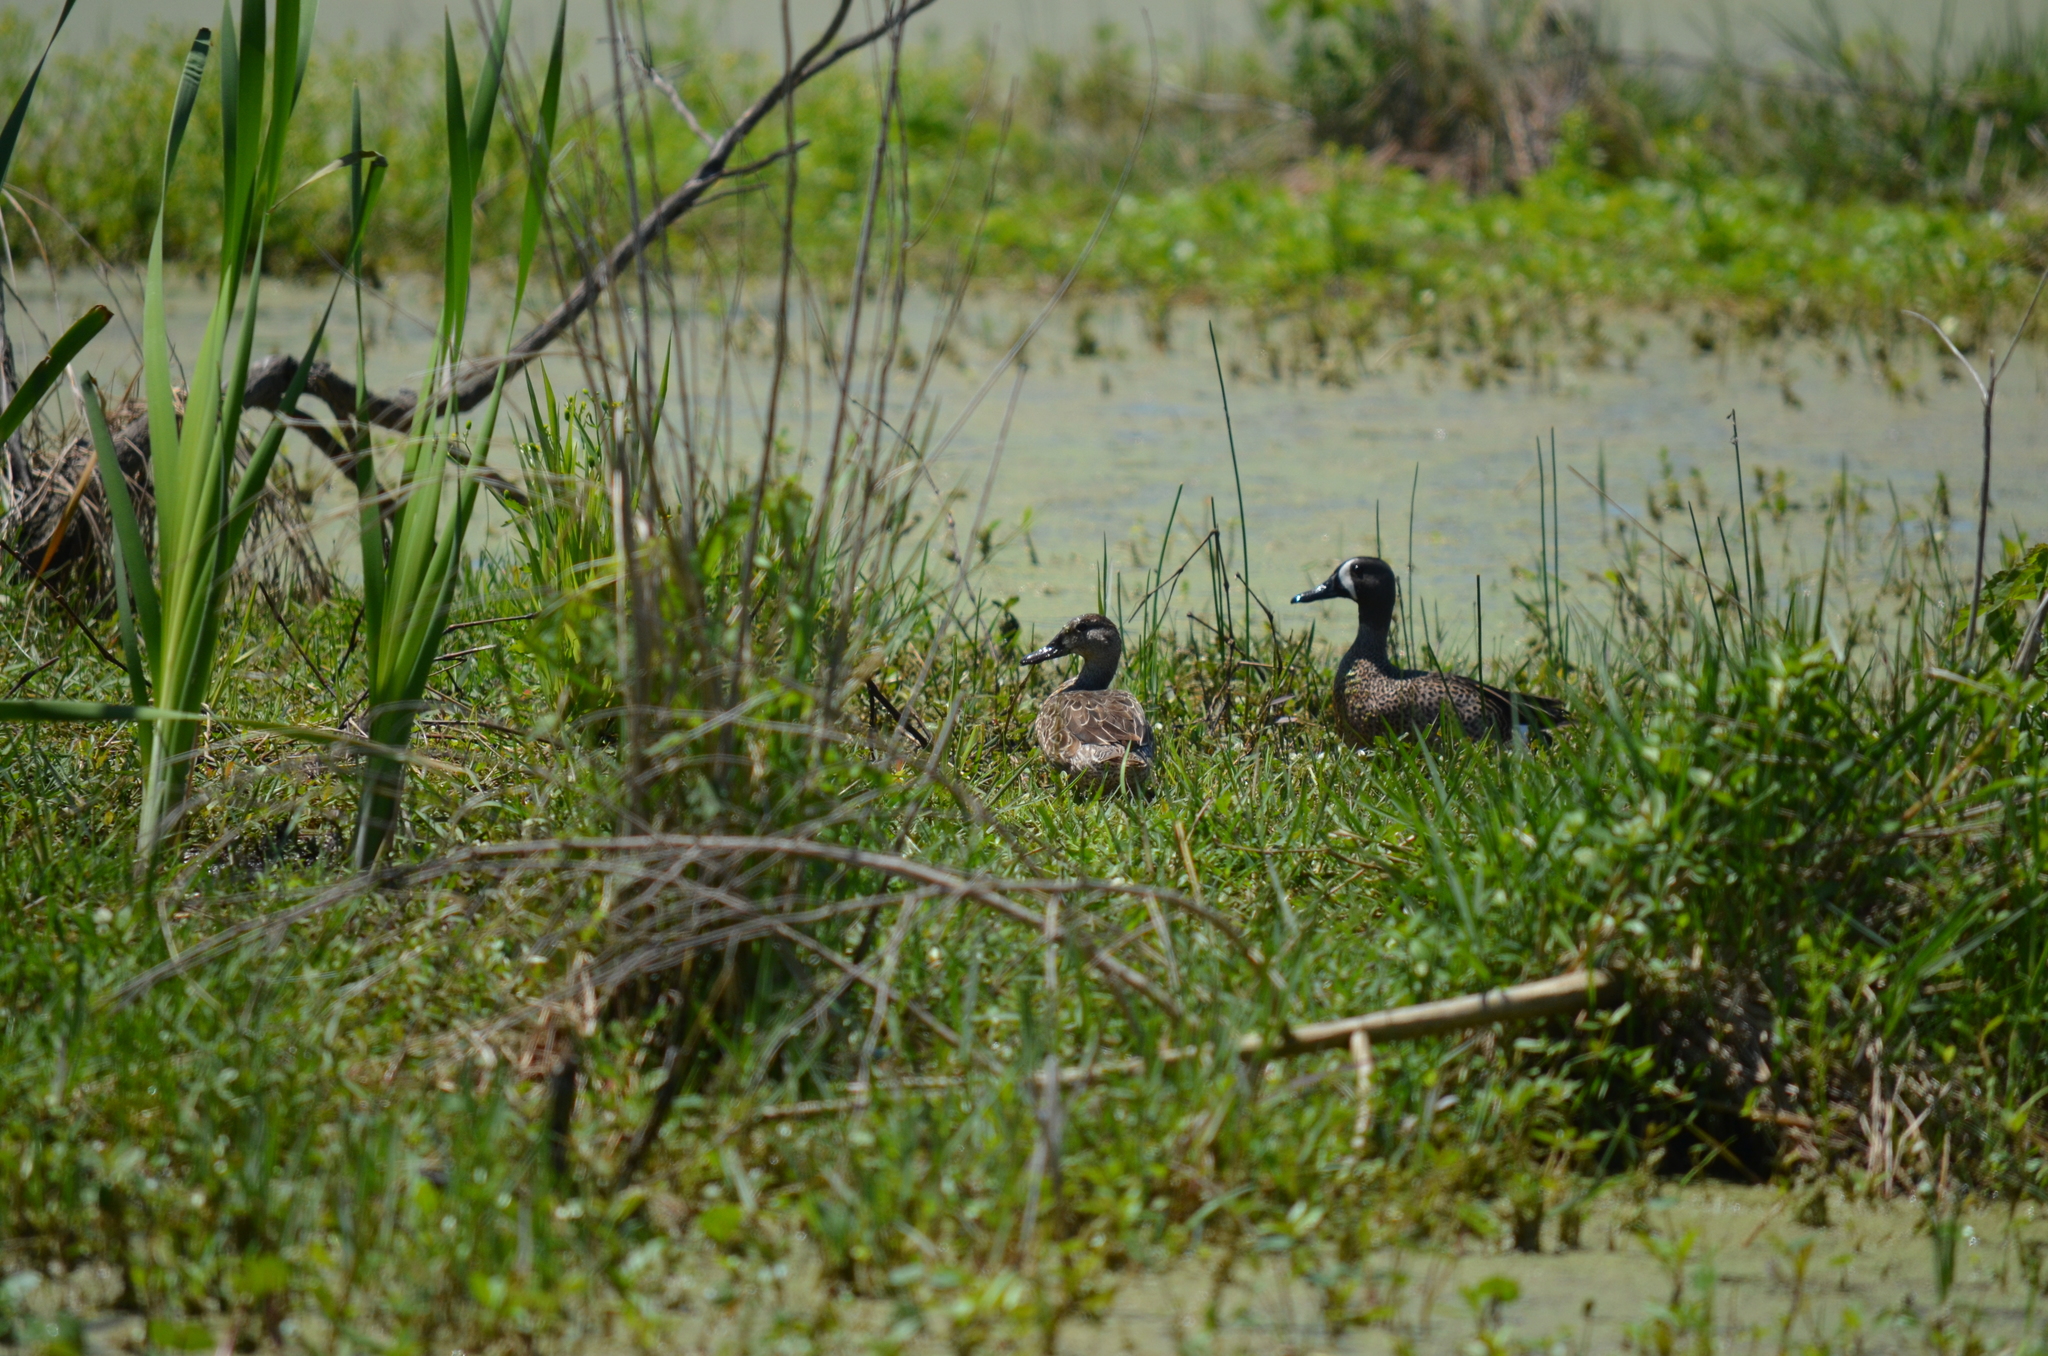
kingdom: Animalia
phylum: Chordata
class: Aves
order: Anseriformes
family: Anatidae
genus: Spatula
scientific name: Spatula discors
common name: Blue-winged teal
